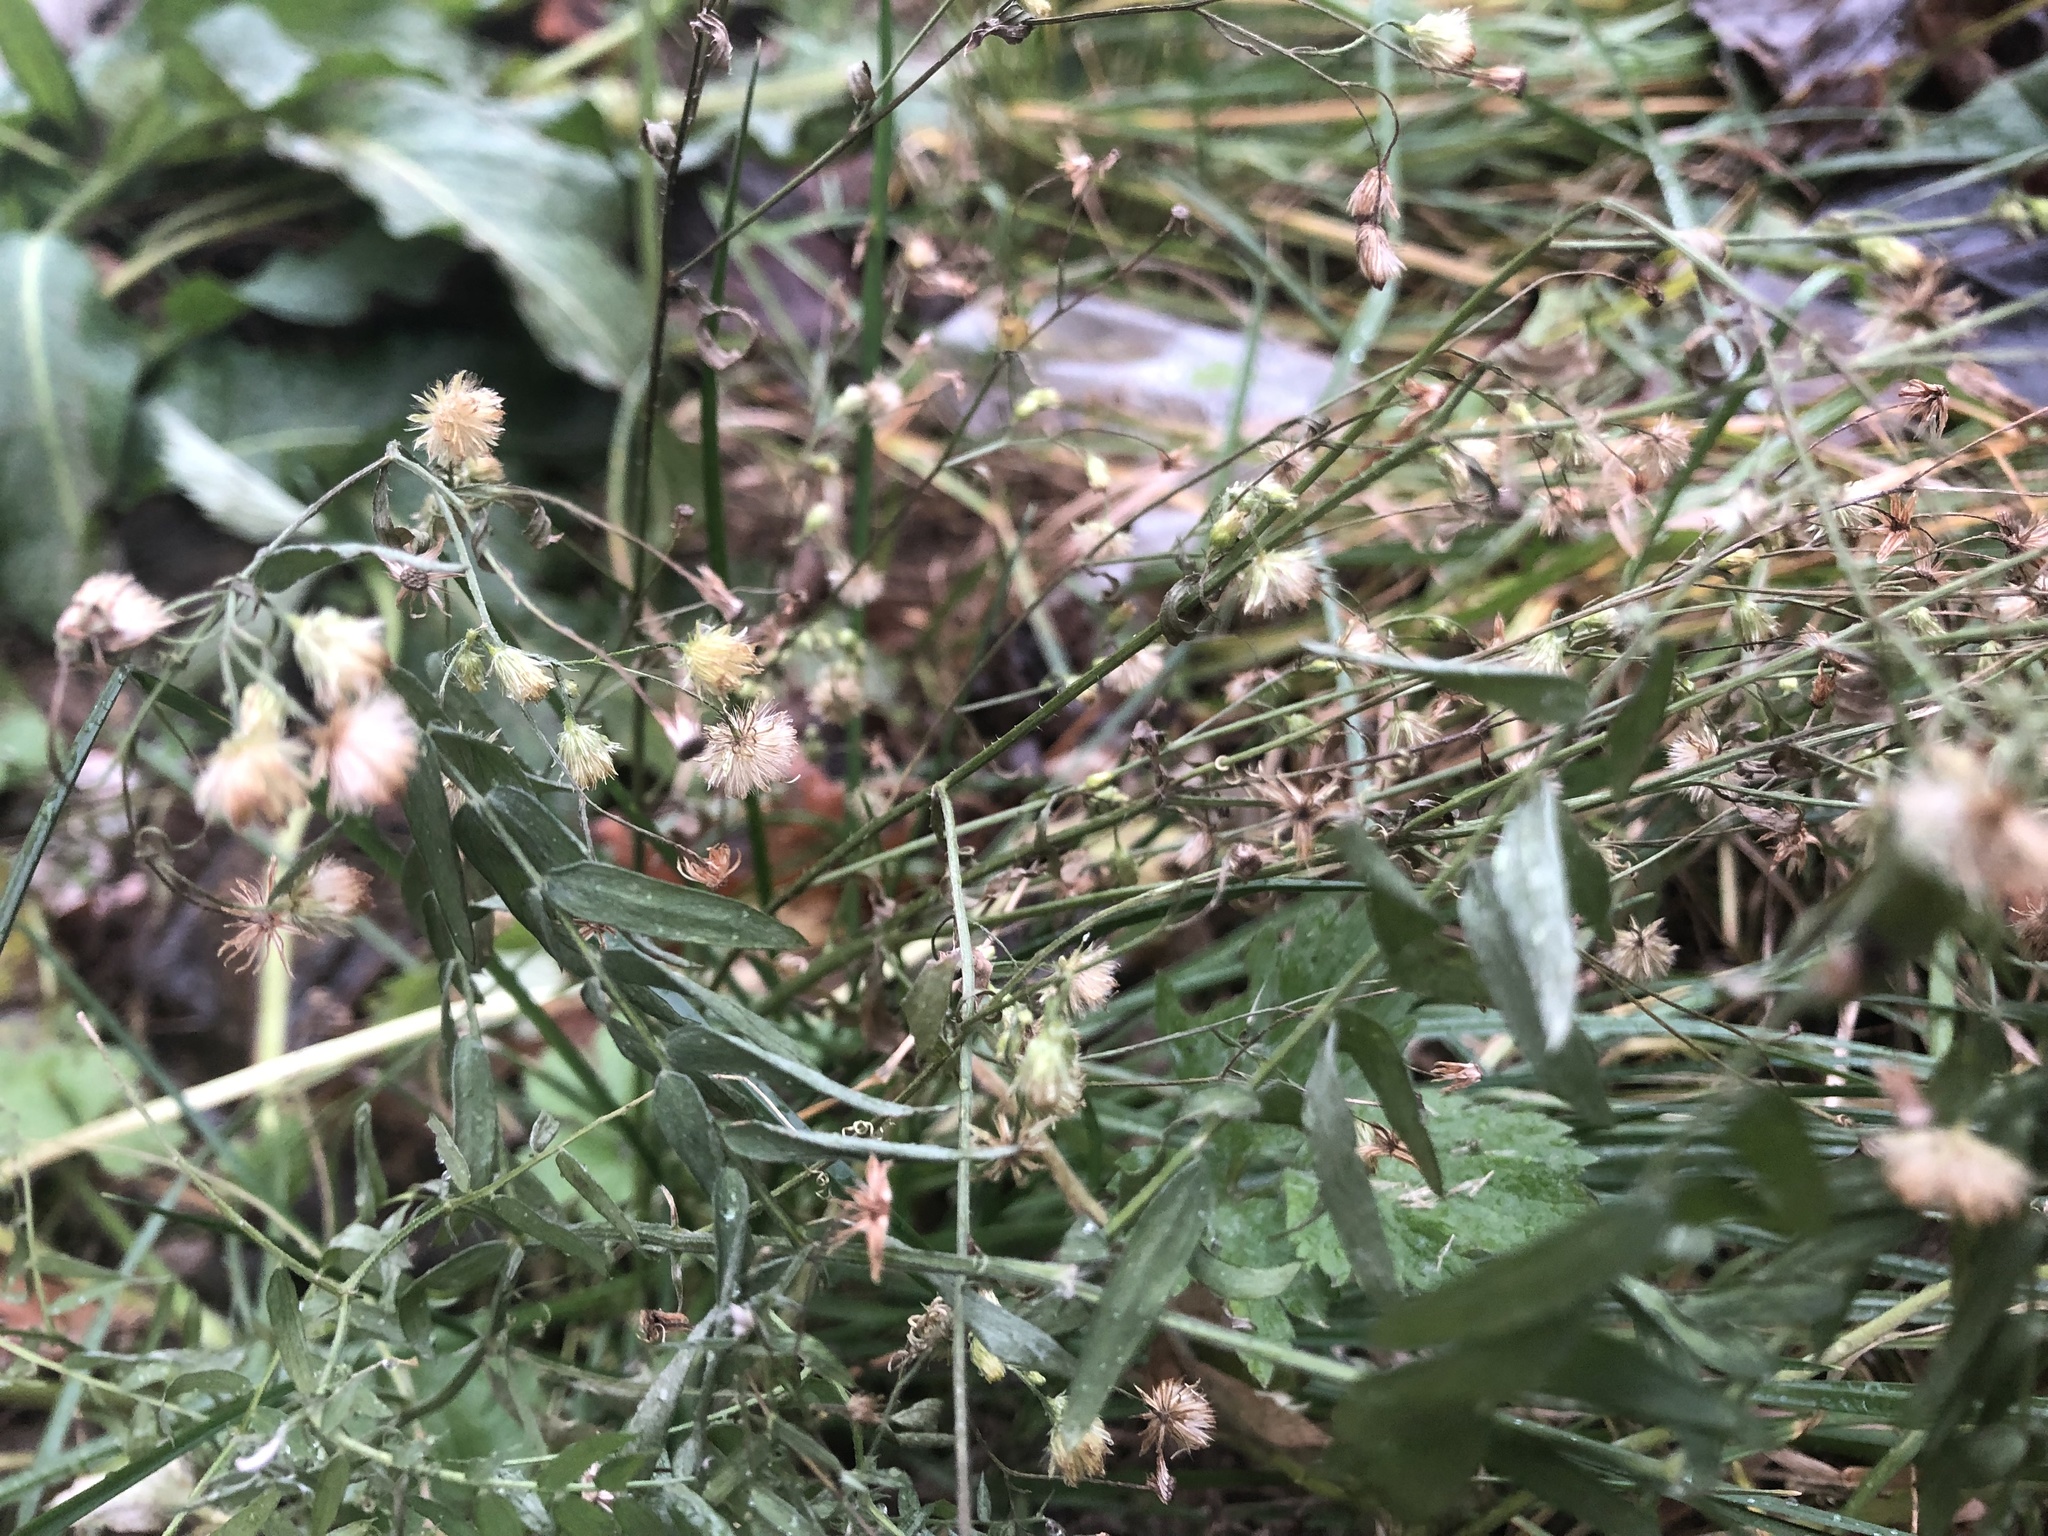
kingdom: Plantae
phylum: Tracheophyta
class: Magnoliopsida
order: Asterales
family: Asteraceae
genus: Erigeron
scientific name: Erigeron canadensis
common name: Canadian fleabane
